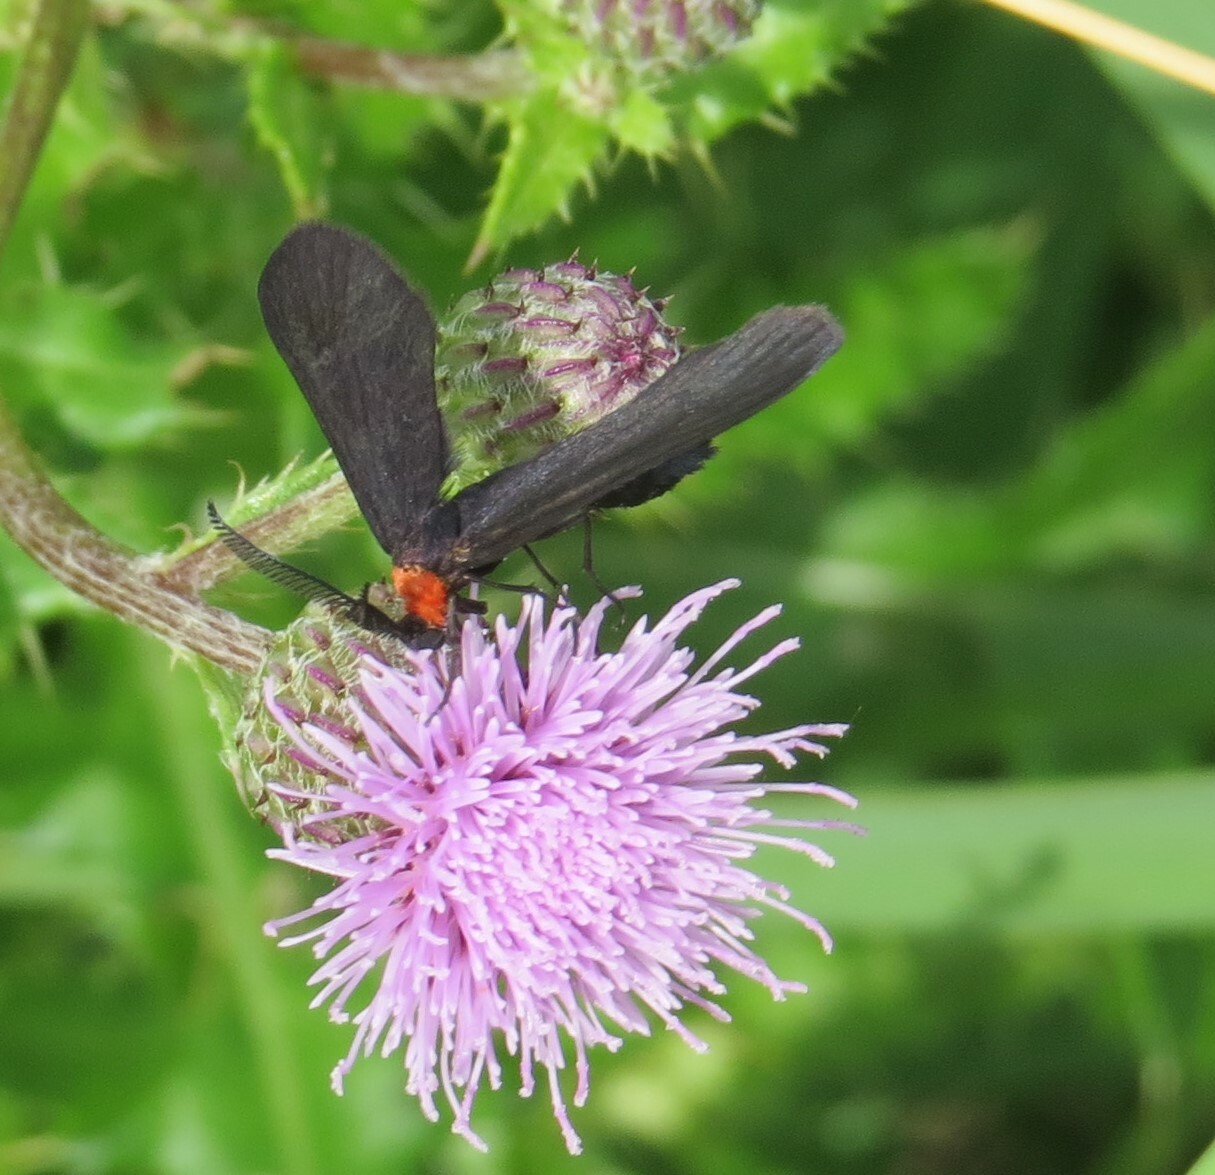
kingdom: Animalia
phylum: Arthropoda
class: Insecta
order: Lepidoptera
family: Zygaenidae
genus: Harrisina
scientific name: Harrisina americana
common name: Grapeleaf skeletonizer moth
